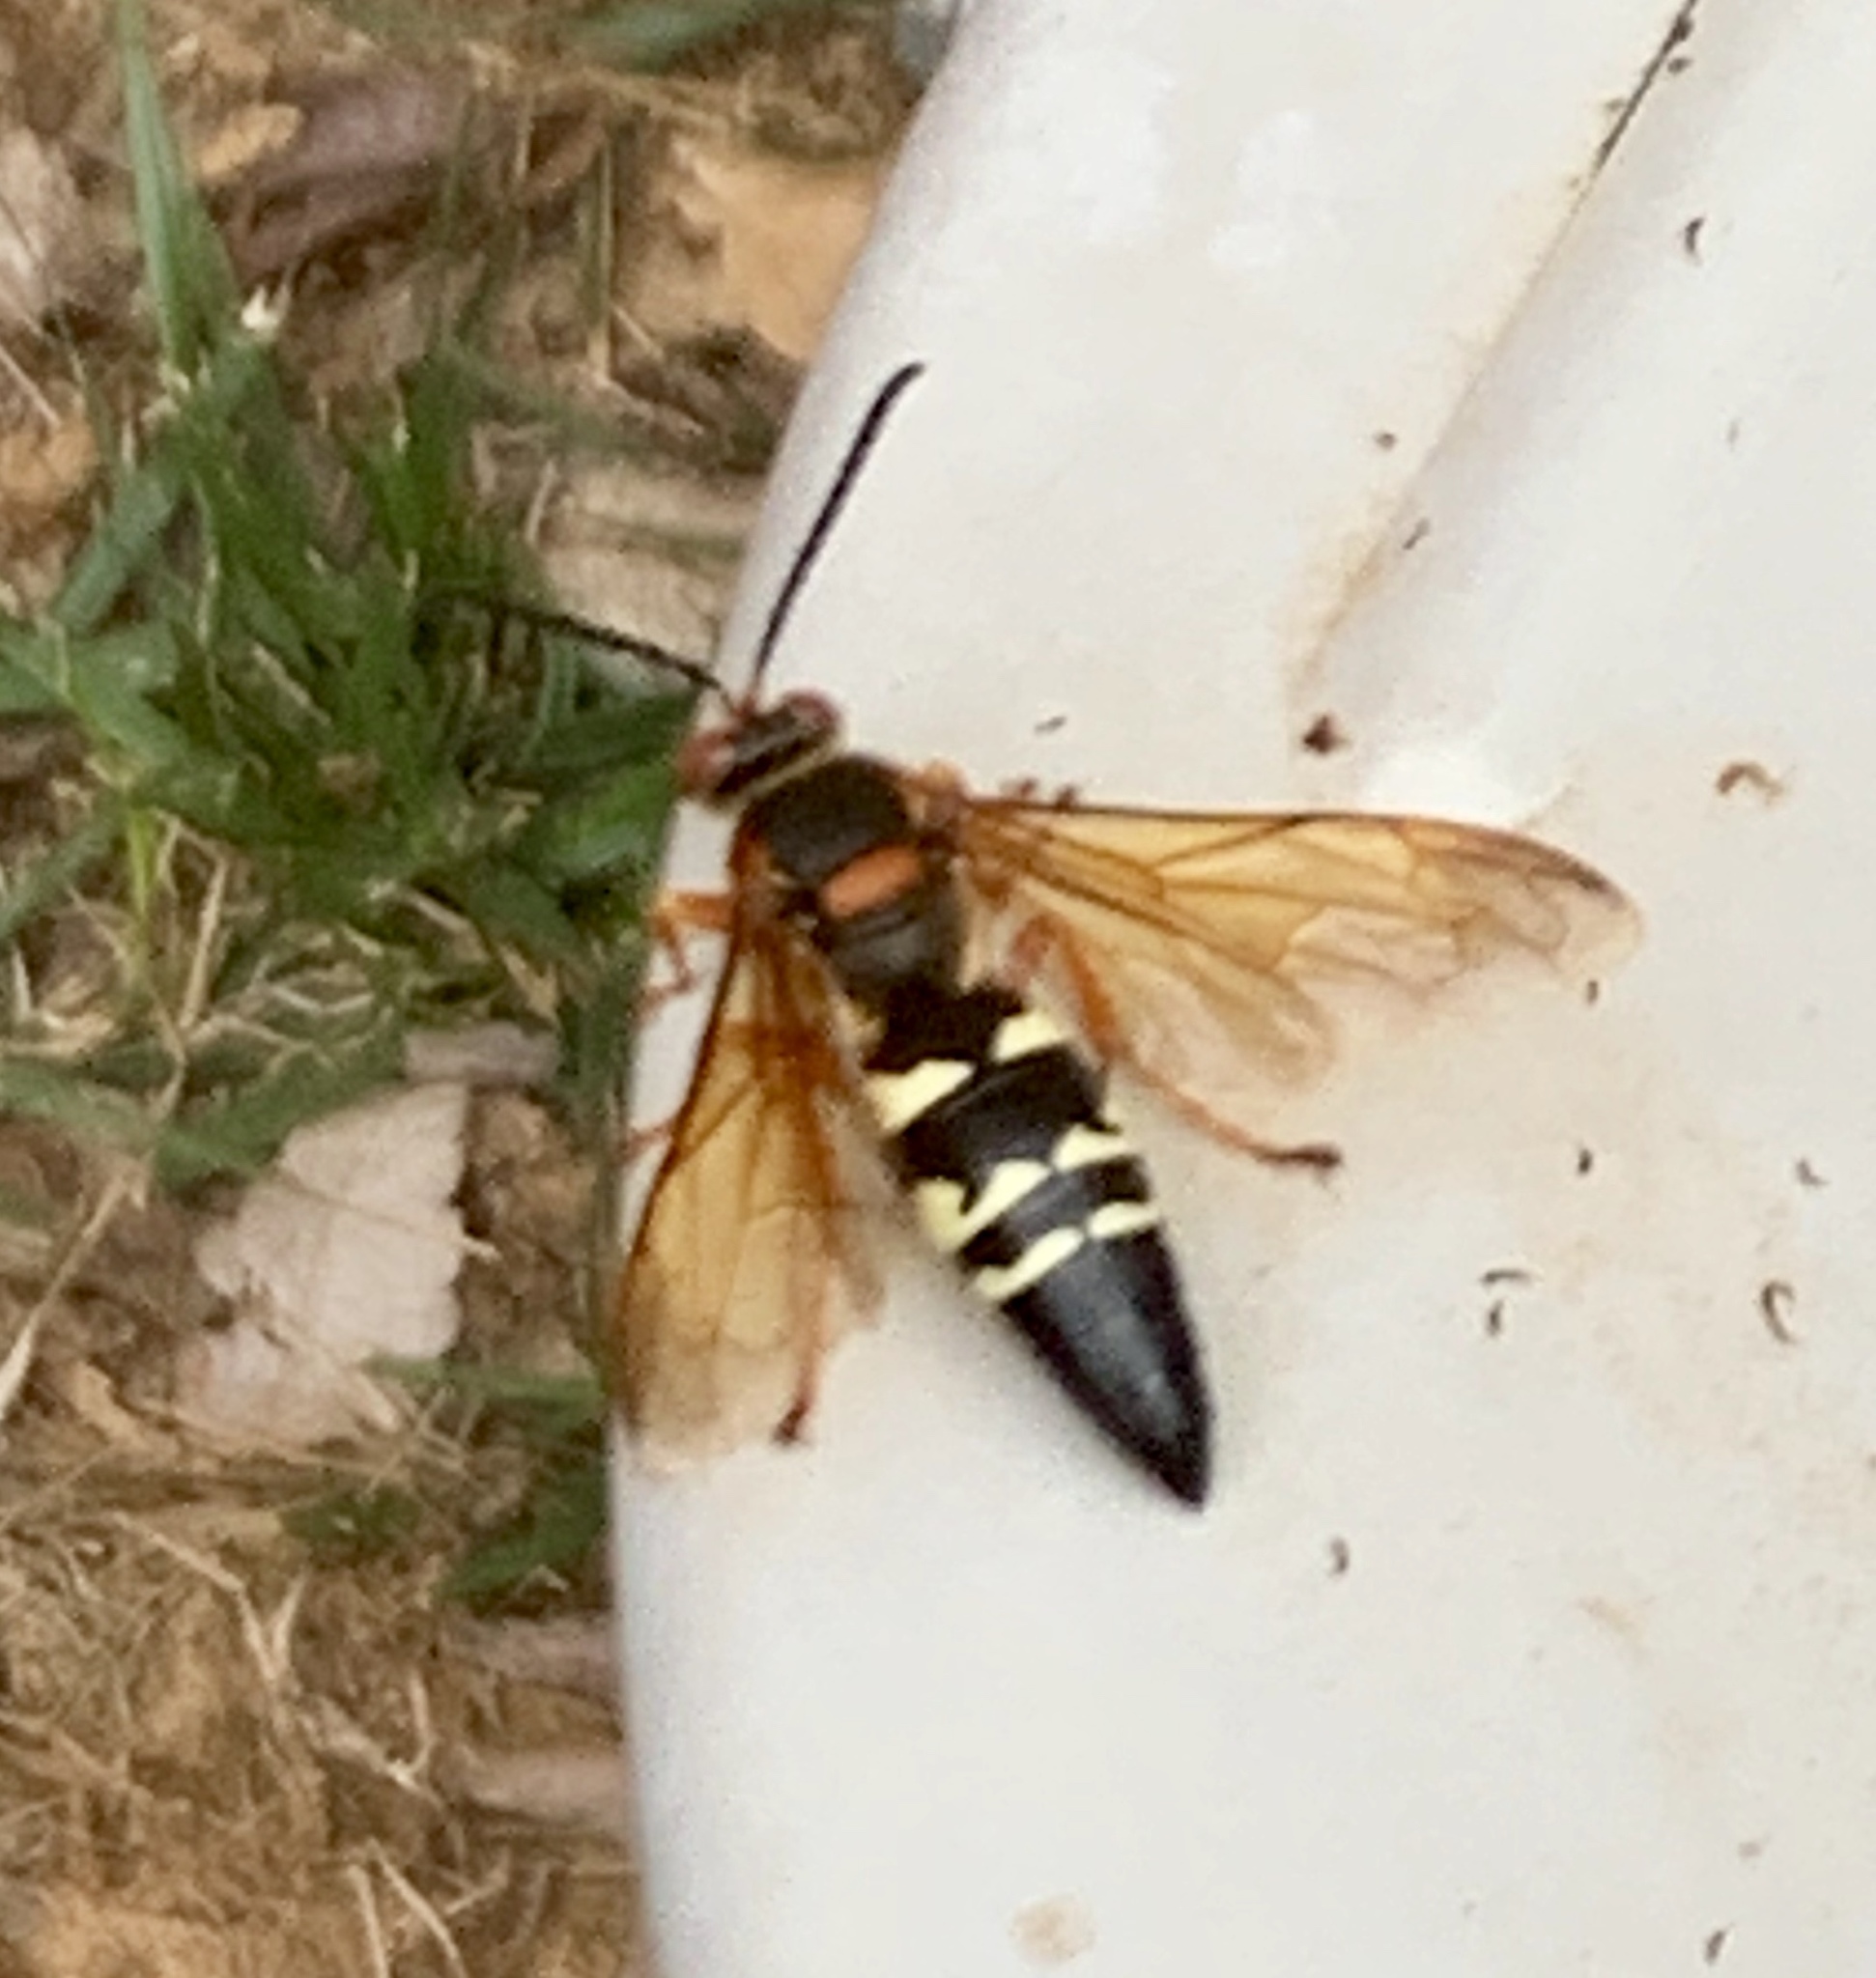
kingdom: Animalia
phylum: Arthropoda
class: Insecta
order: Hymenoptera
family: Crabronidae
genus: Sphecius
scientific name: Sphecius speciosus
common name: Cicada killer
